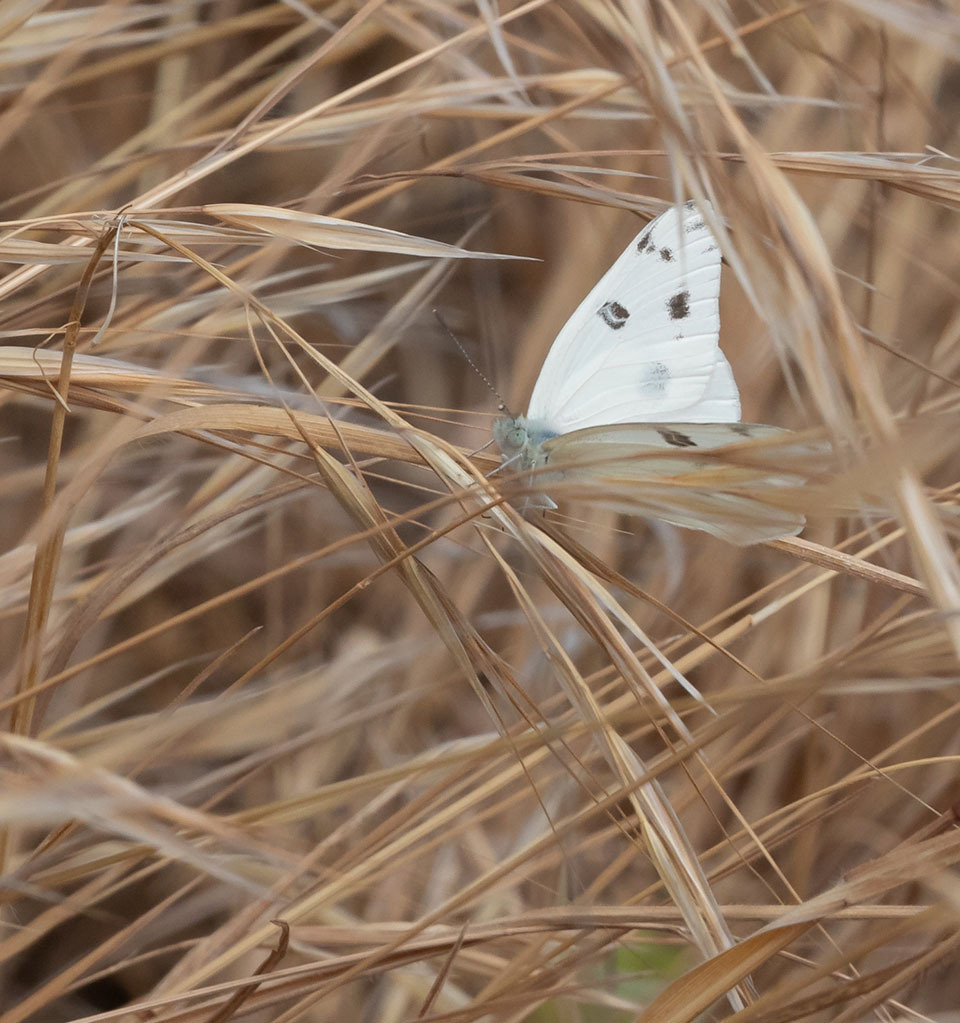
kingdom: Animalia
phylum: Arthropoda
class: Insecta
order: Lepidoptera
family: Pieridae
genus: Pontia
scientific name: Pontia protodice
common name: Checkered white
